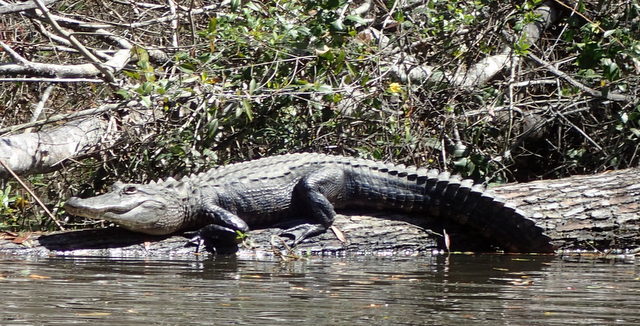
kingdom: Animalia
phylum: Chordata
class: Crocodylia
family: Alligatoridae
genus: Alligator
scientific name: Alligator mississippiensis
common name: American alligator
